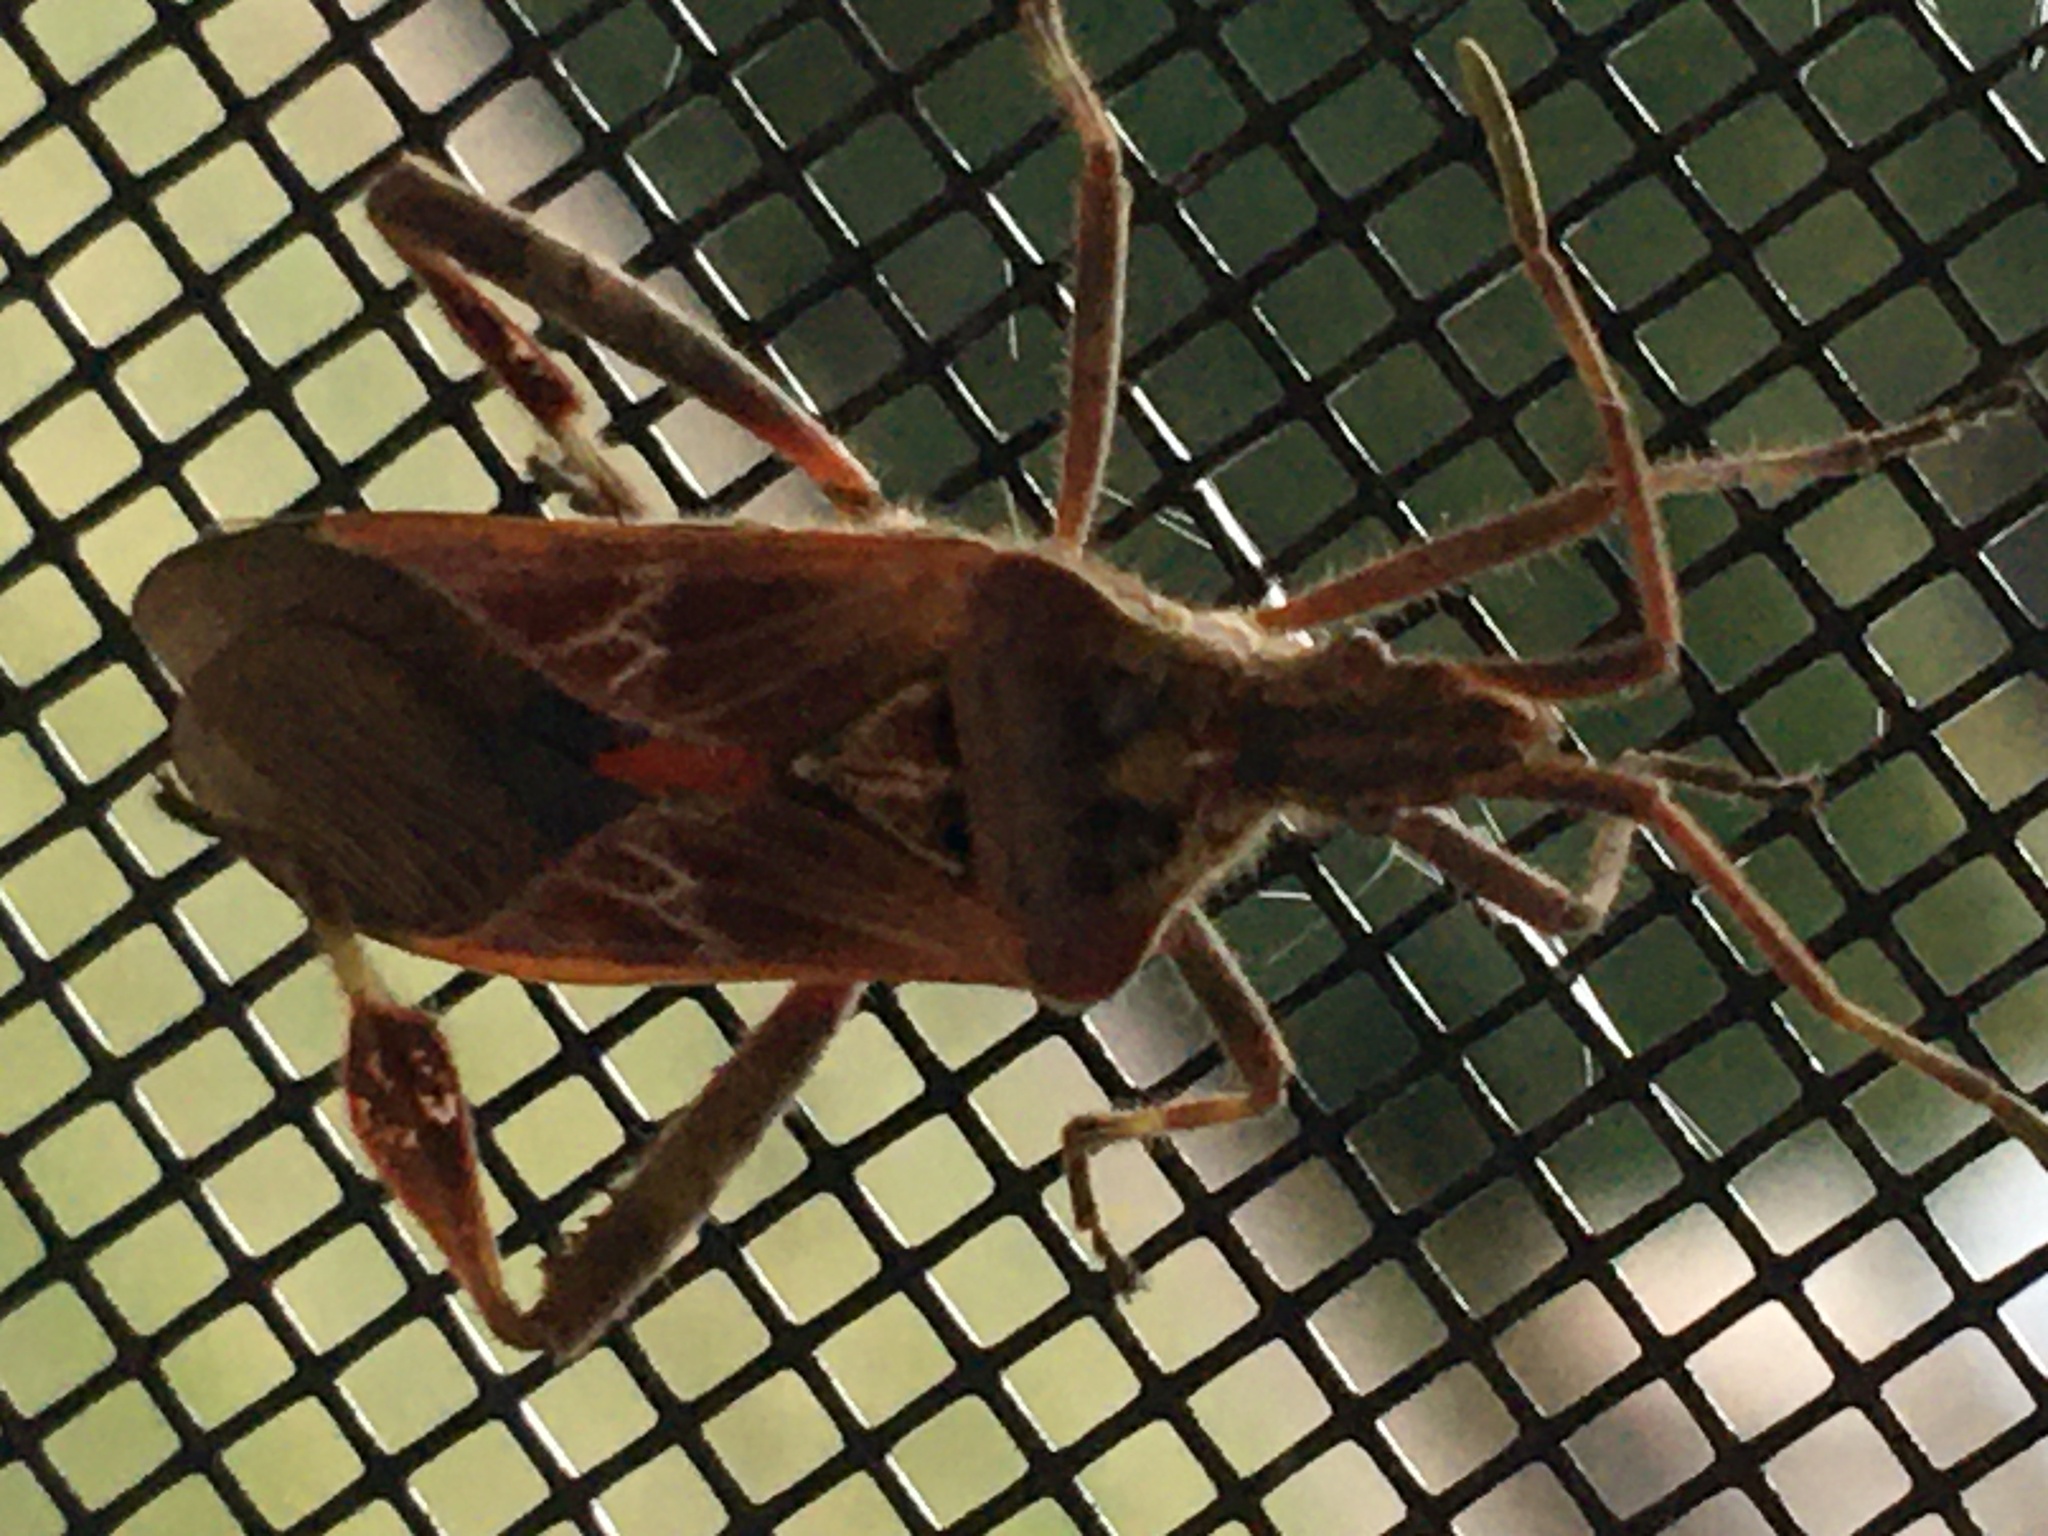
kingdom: Animalia
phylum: Arthropoda
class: Insecta
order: Hemiptera
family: Coreidae
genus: Leptoglossus
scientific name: Leptoglossus occidentalis
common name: Western conifer-seed bug
